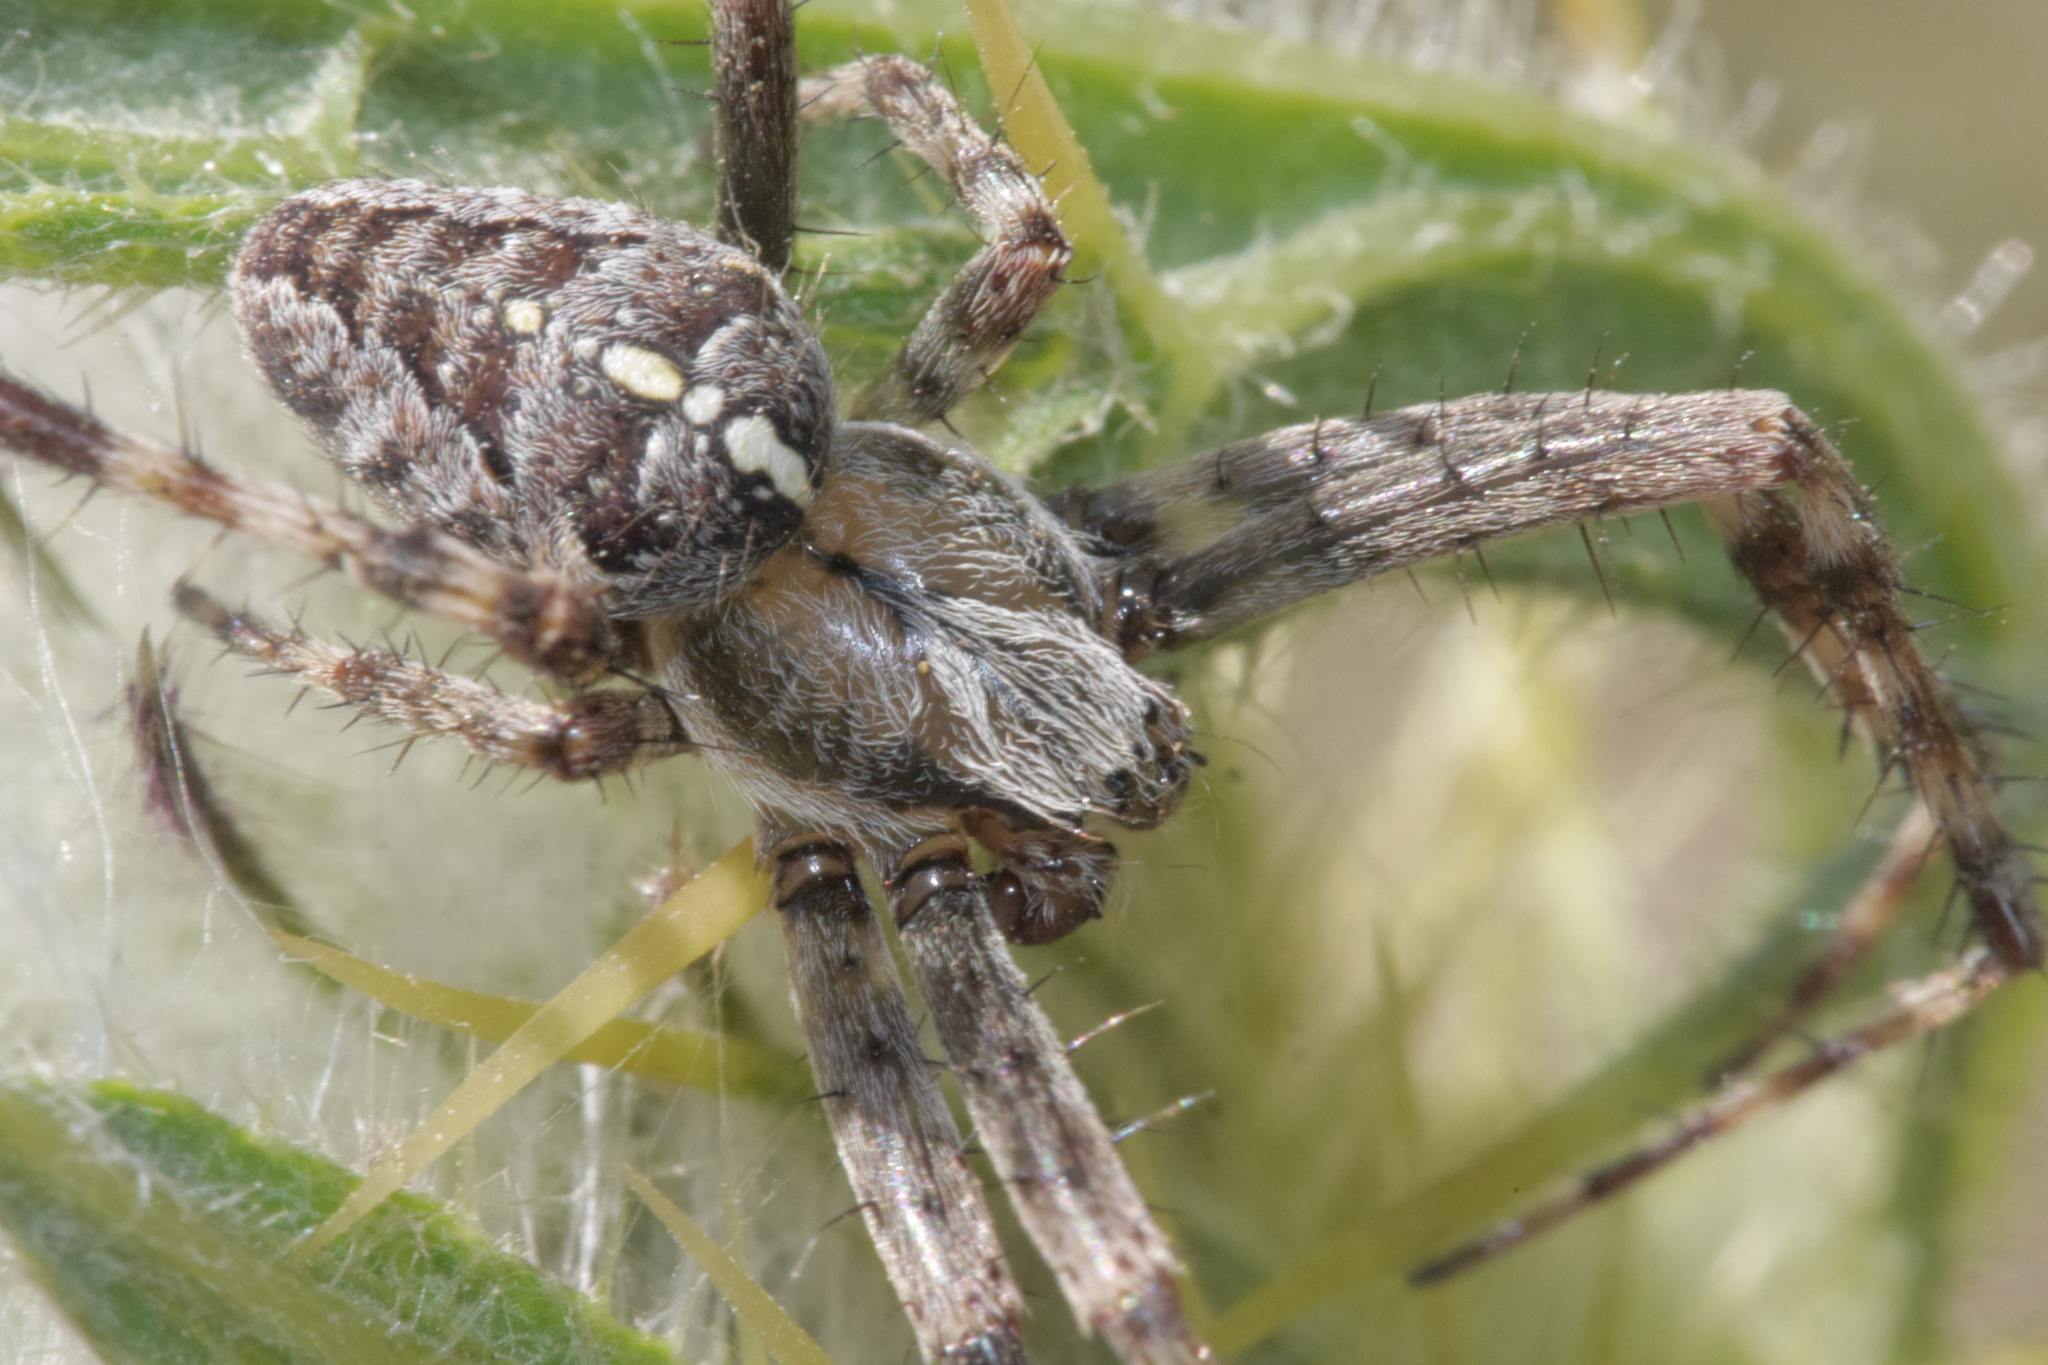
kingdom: Animalia
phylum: Arthropoda
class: Arachnida
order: Araneae
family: Araneidae
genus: Araneus
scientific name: Araneus diadematus
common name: Cross orbweaver
